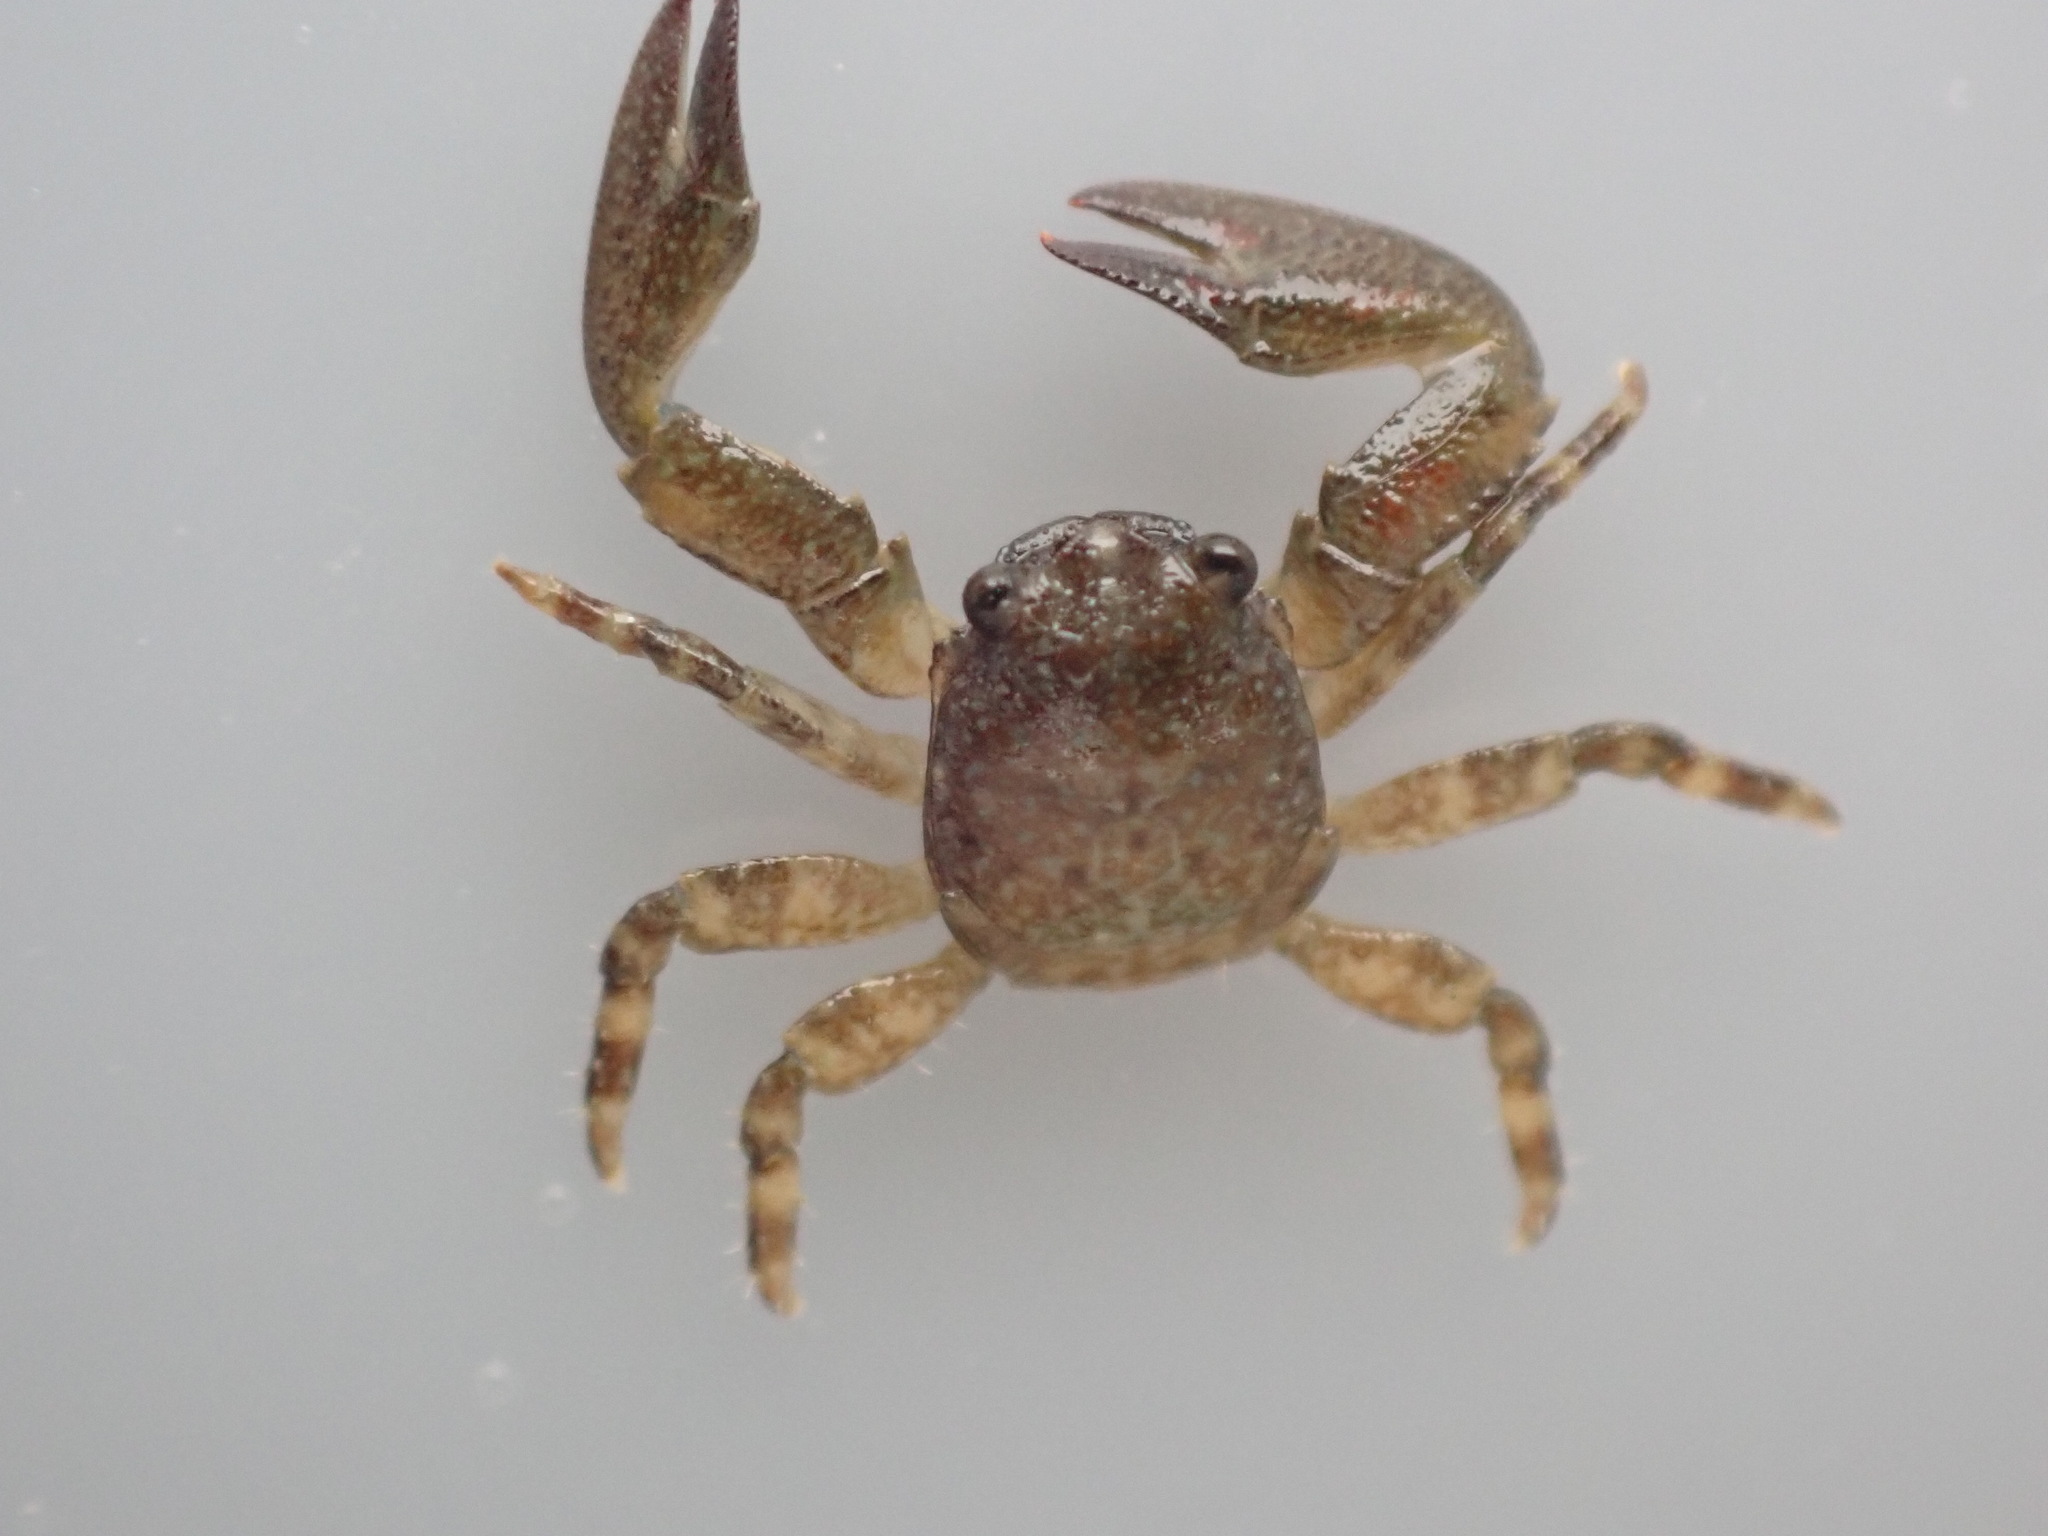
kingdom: Animalia
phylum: Arthropoda
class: Malacostraca
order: Decapoda
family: Porcellanidae
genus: Petrolisthes
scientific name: Petrolisthes elongatus
